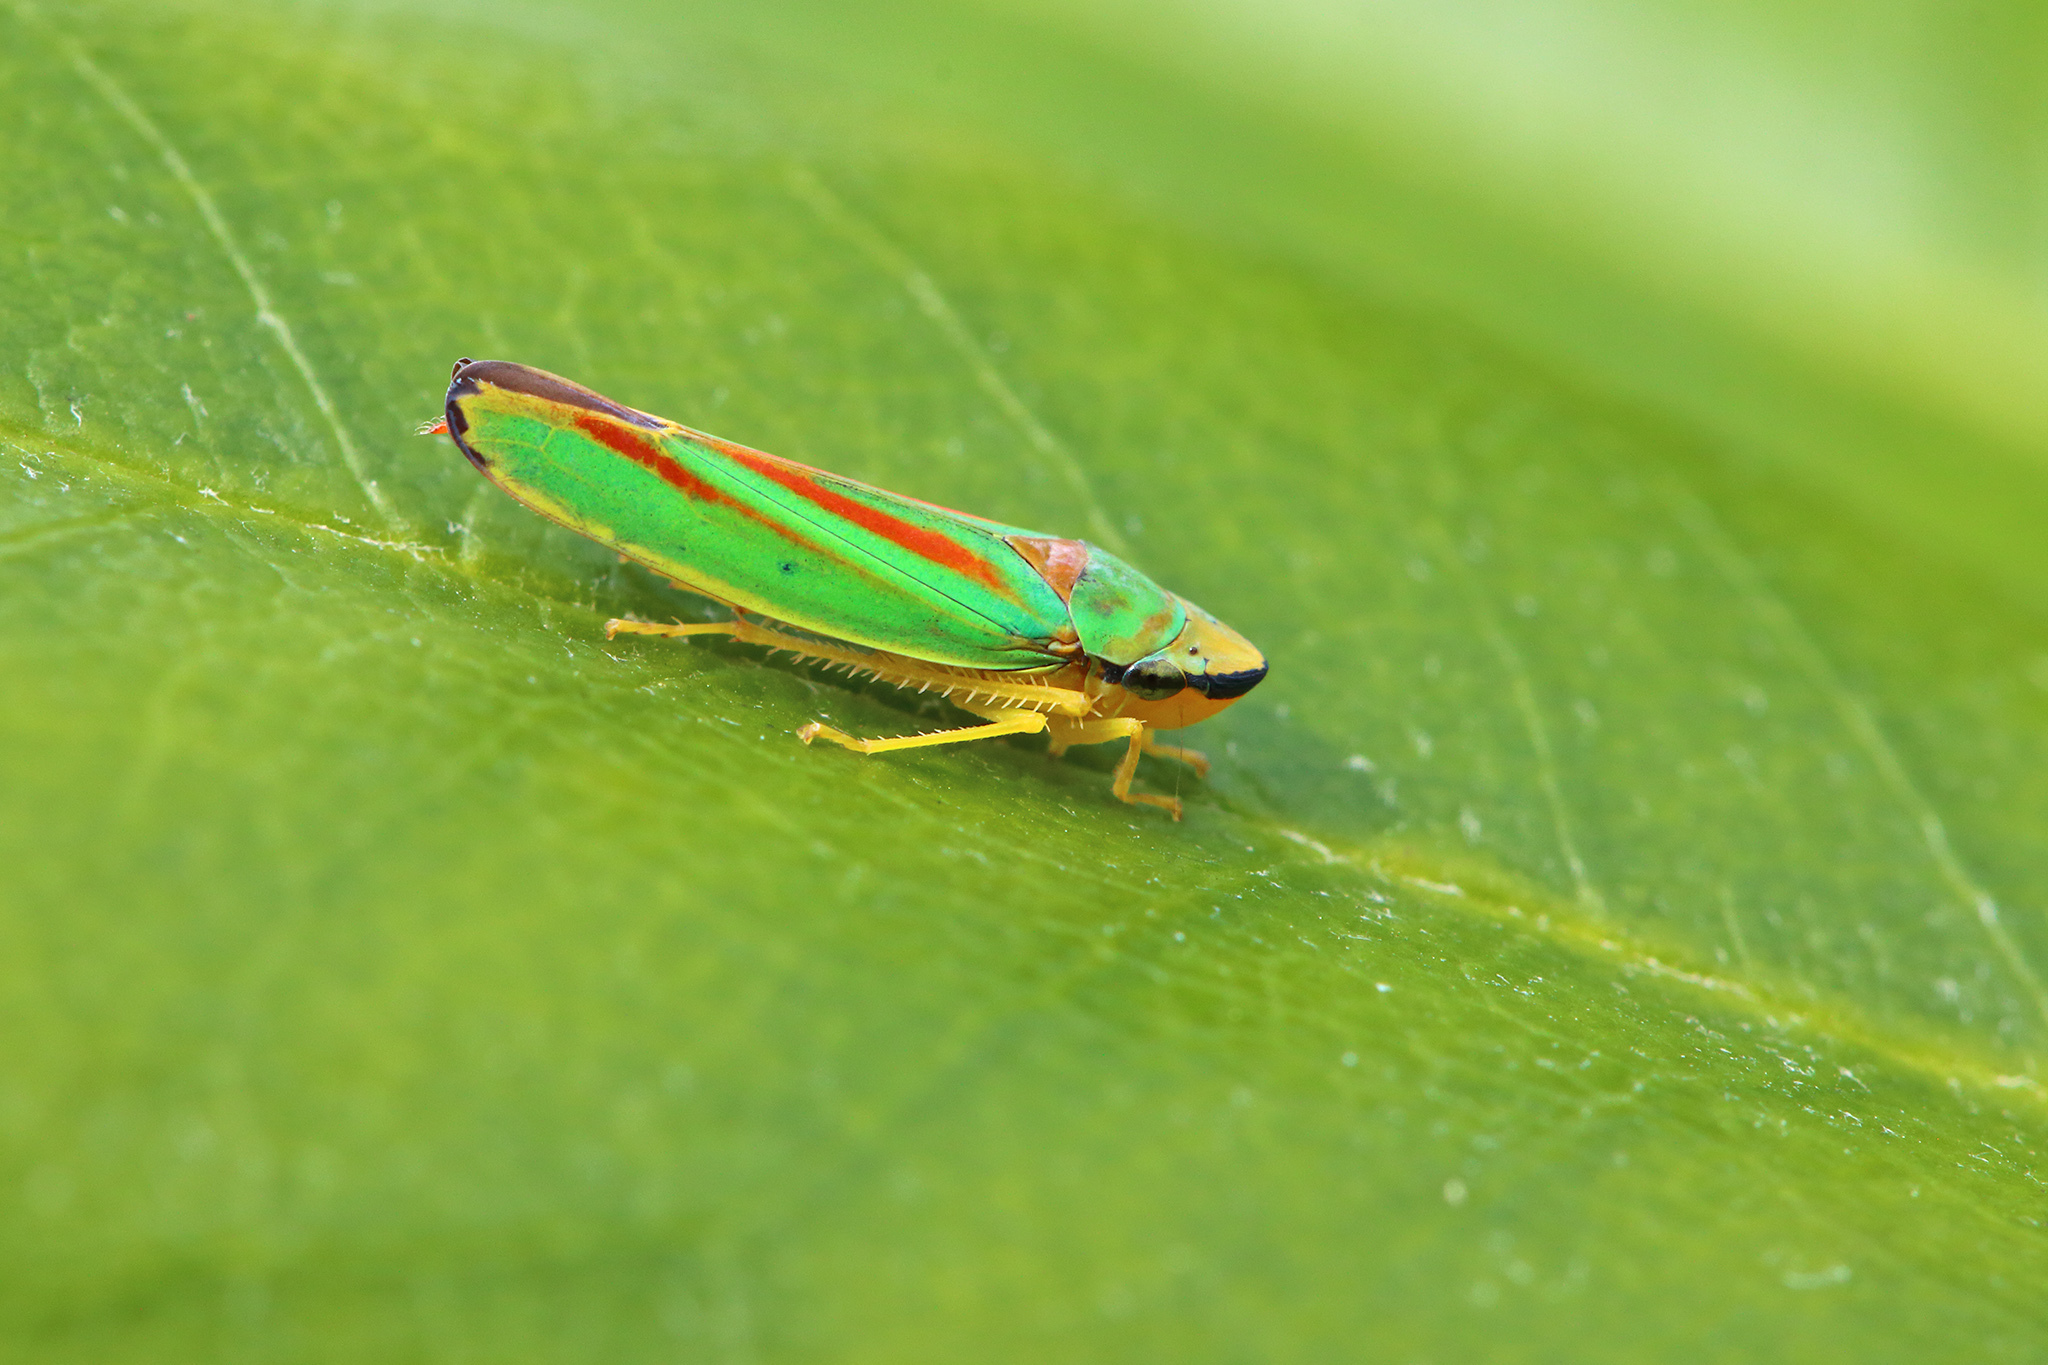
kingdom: Animalia
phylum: Arthropoda
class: Insecta
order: Hemiptera
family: Cicadellidae
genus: Graphocephala
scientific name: Graphocephala fennahi
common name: Rhododendron leafhopper
